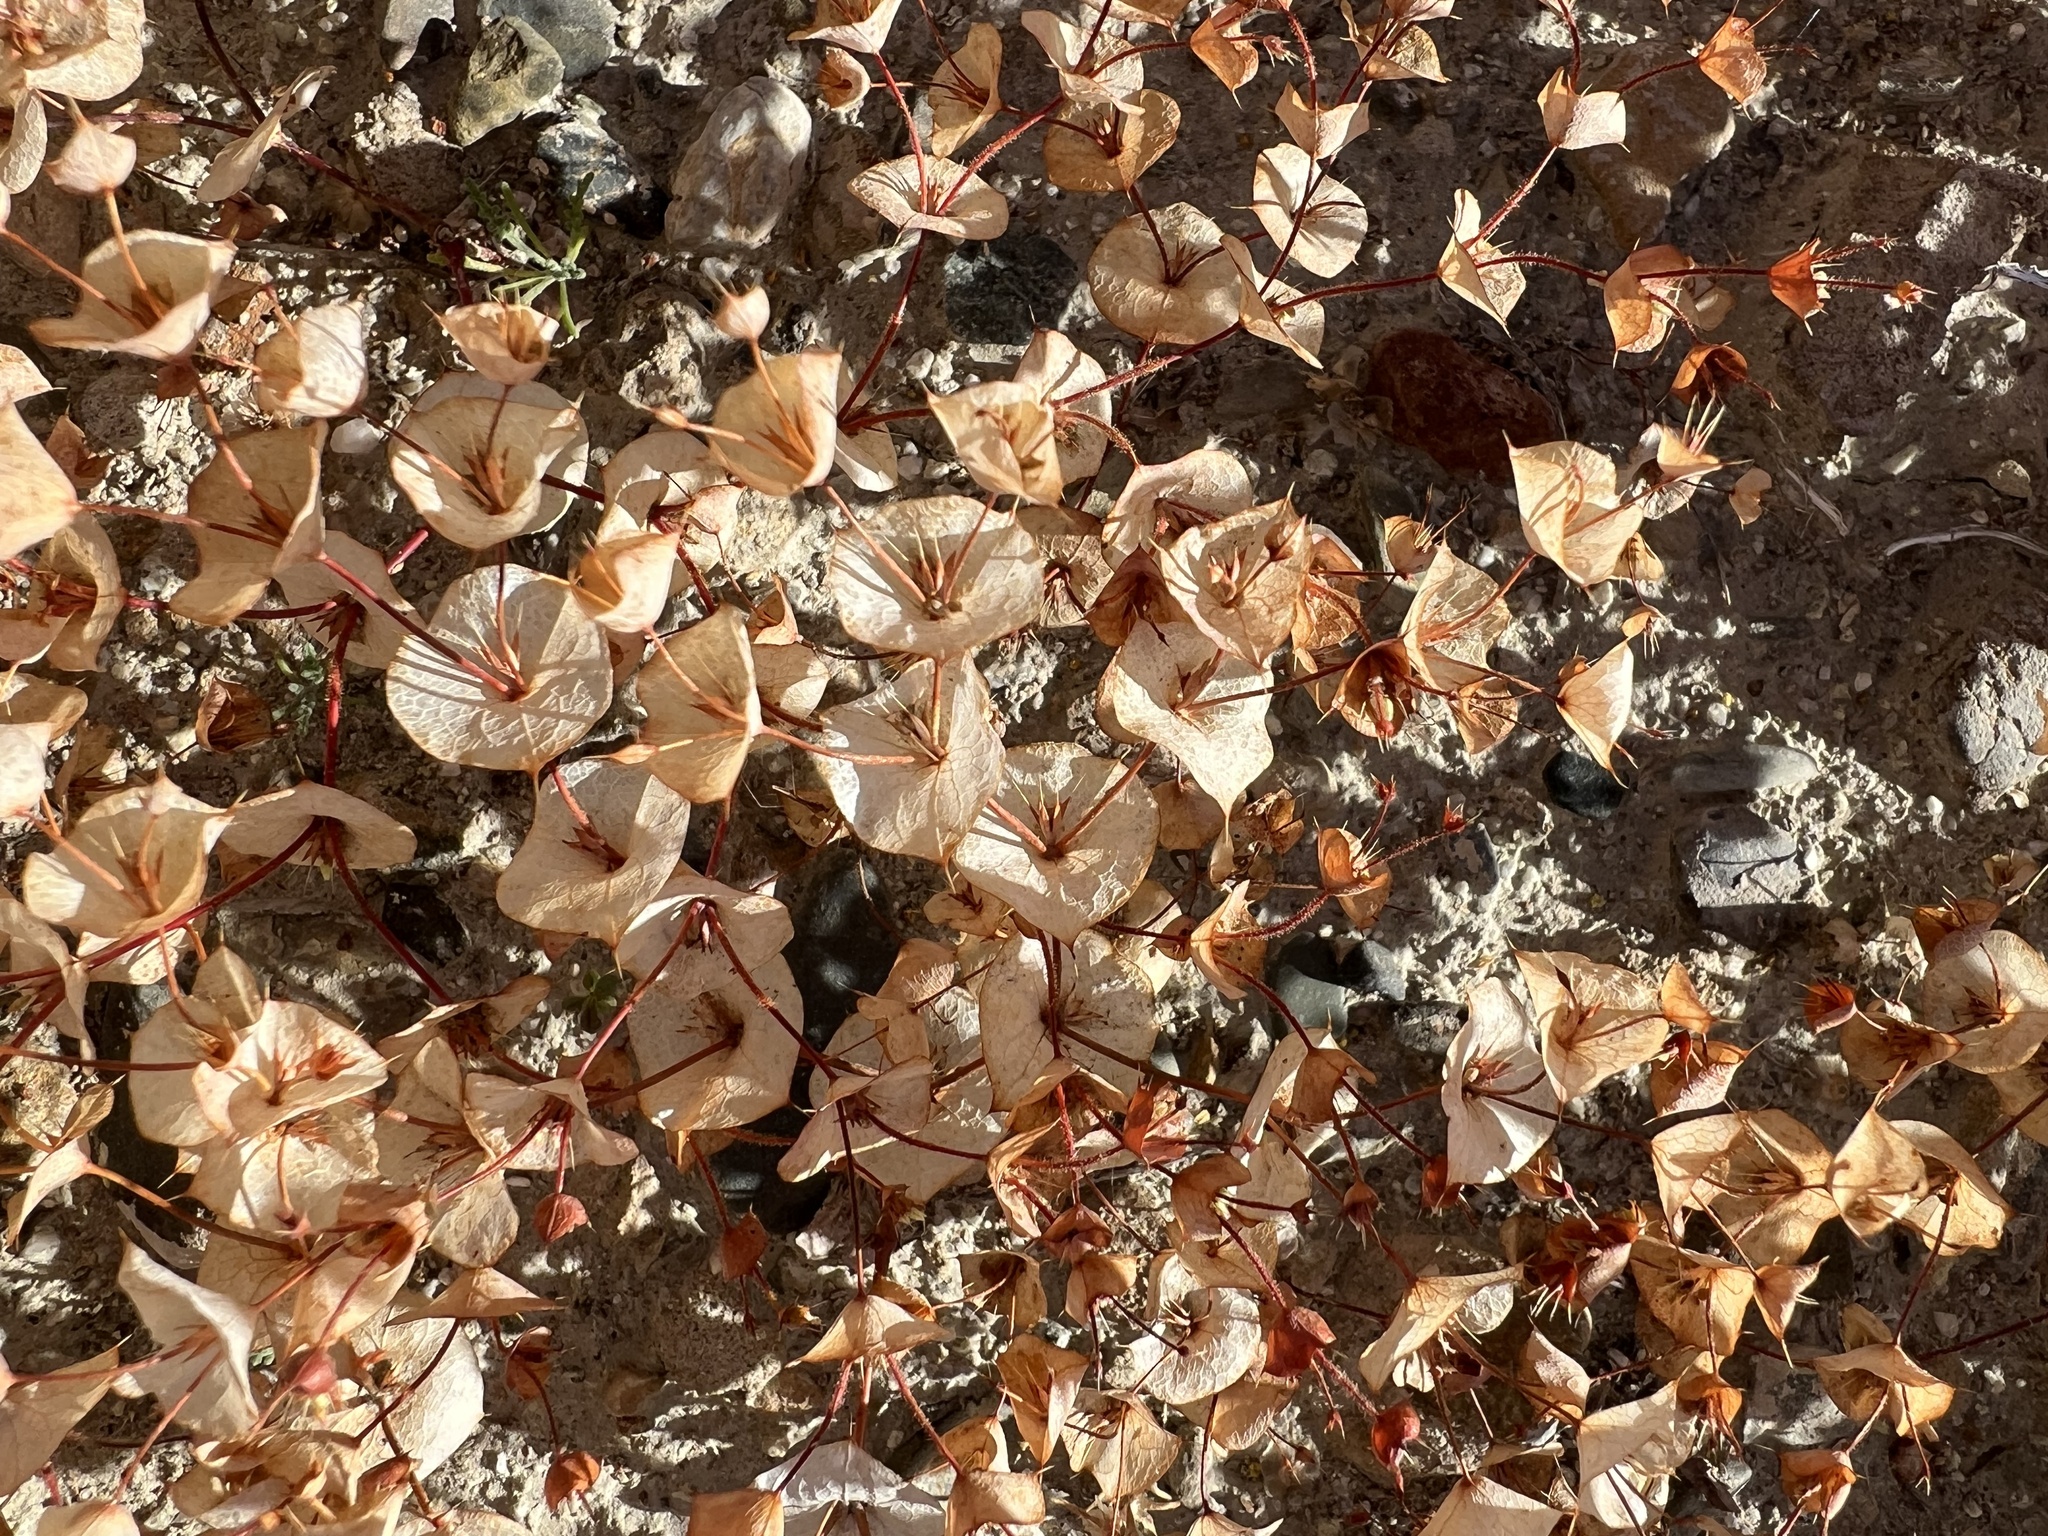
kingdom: Plantae
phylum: Tracheophyta
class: Magnoliopsida
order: Caryophyllales
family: Polygonaceae
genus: Oxytheca
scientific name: Oxytheca perfoliata
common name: Round-leaf puncturebract
